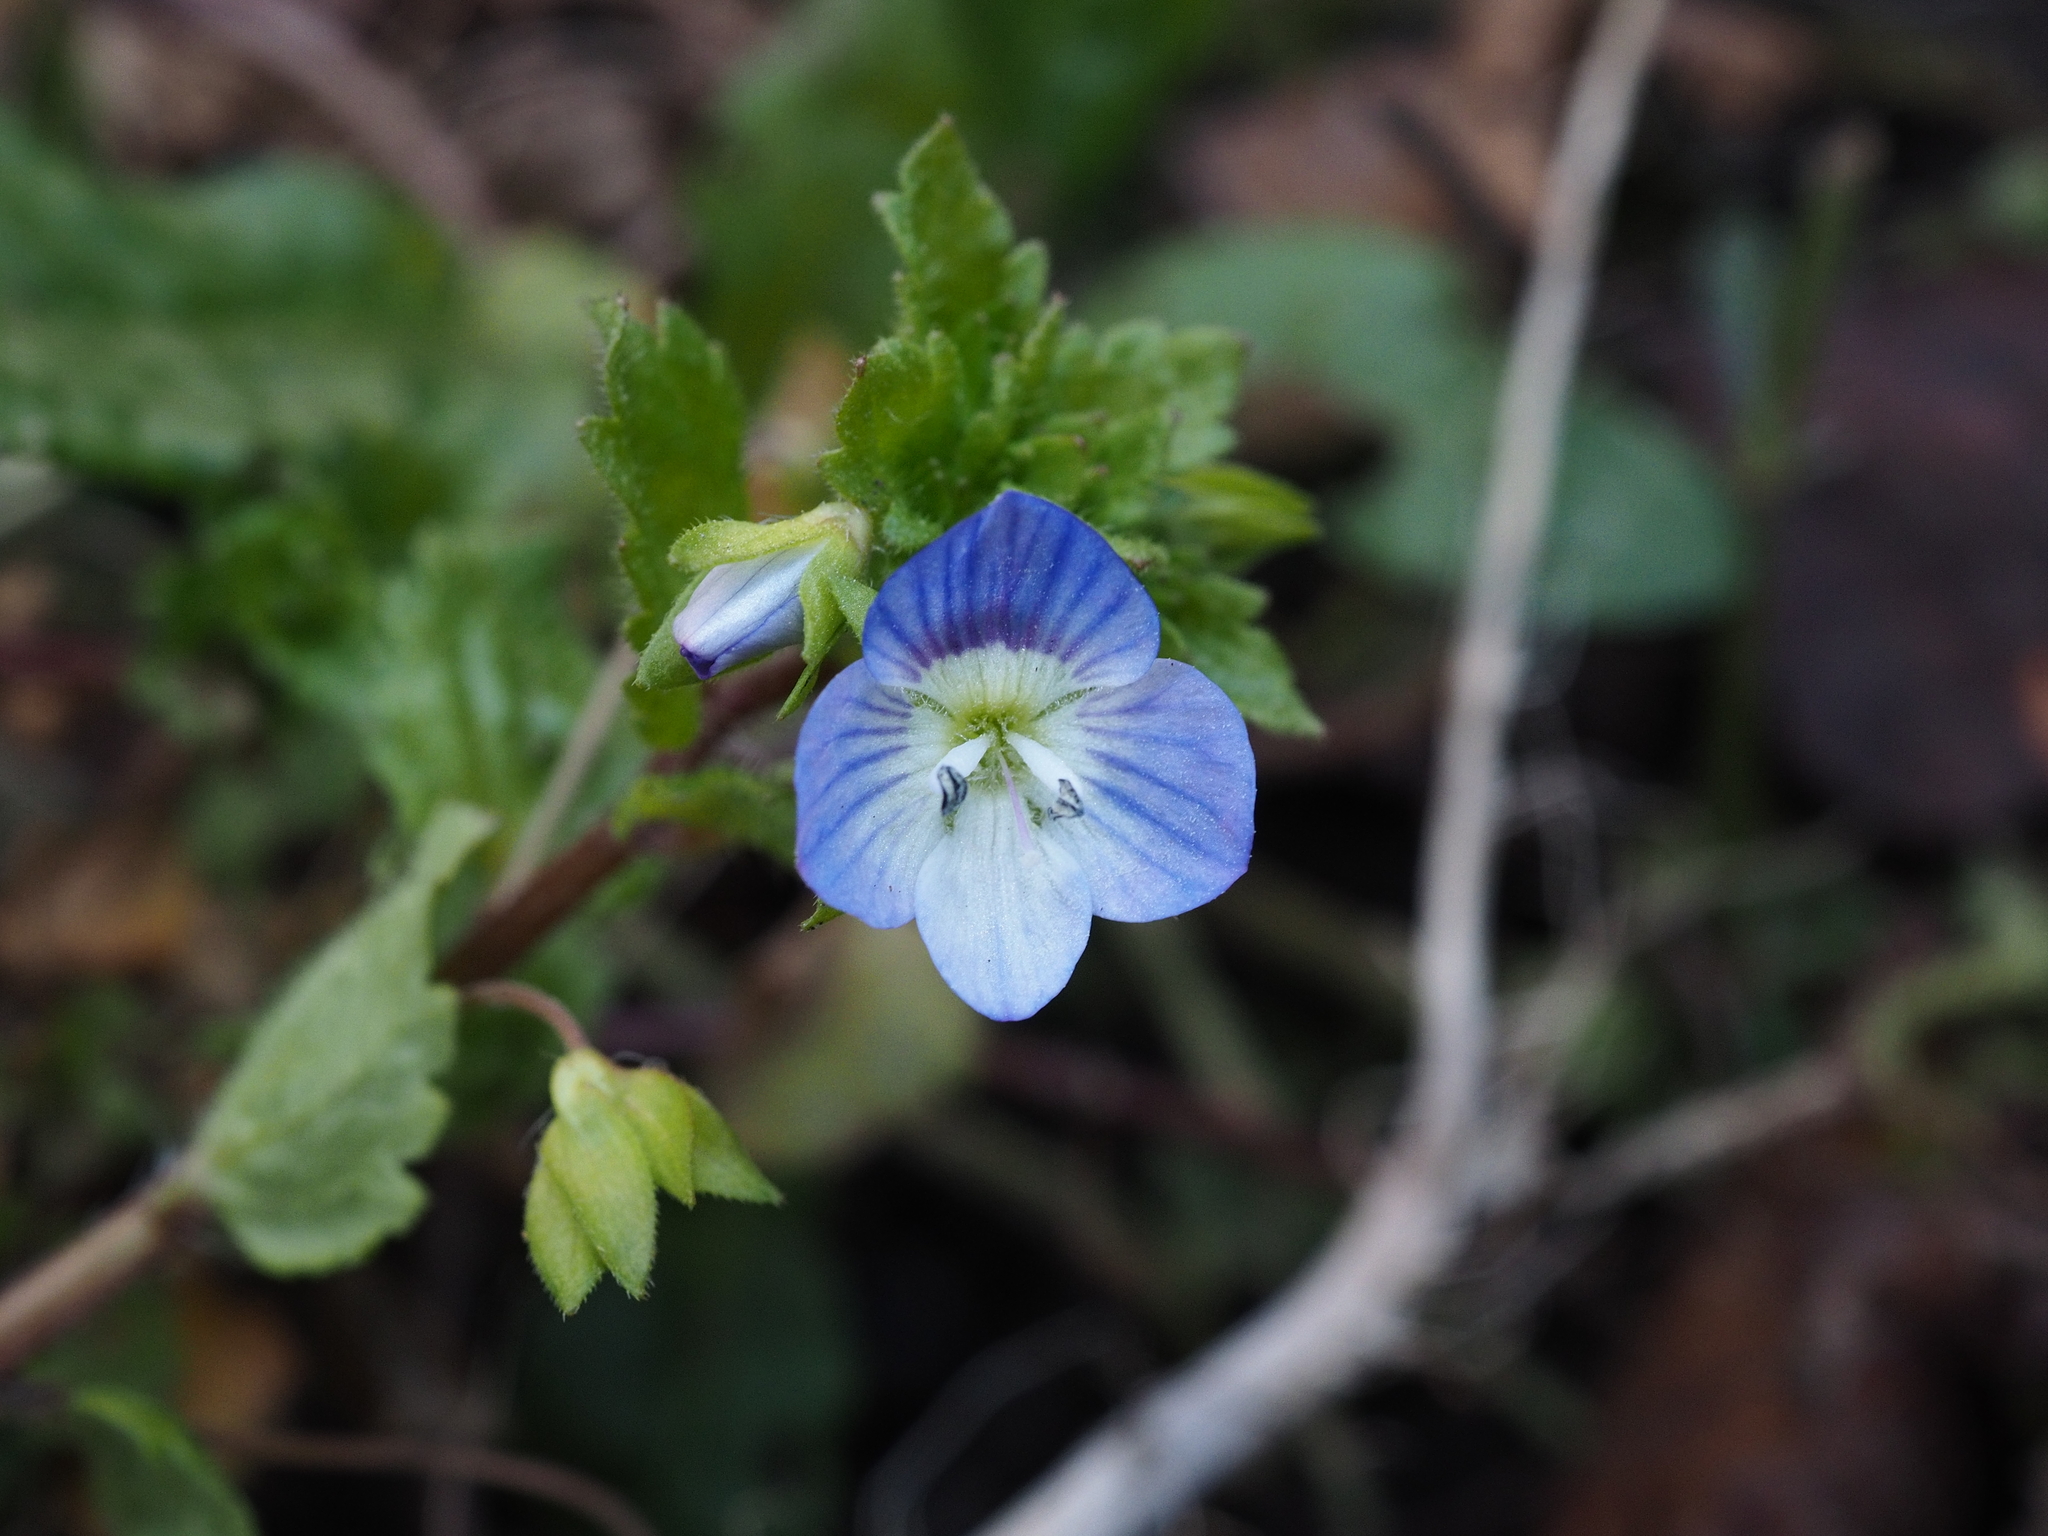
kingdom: Plantae
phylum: Tracheophyta
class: Magnoliopsida
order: Lamiales
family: Plantaginaceae
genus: Veronica
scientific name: Veronica persica
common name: Common field-speedwell
